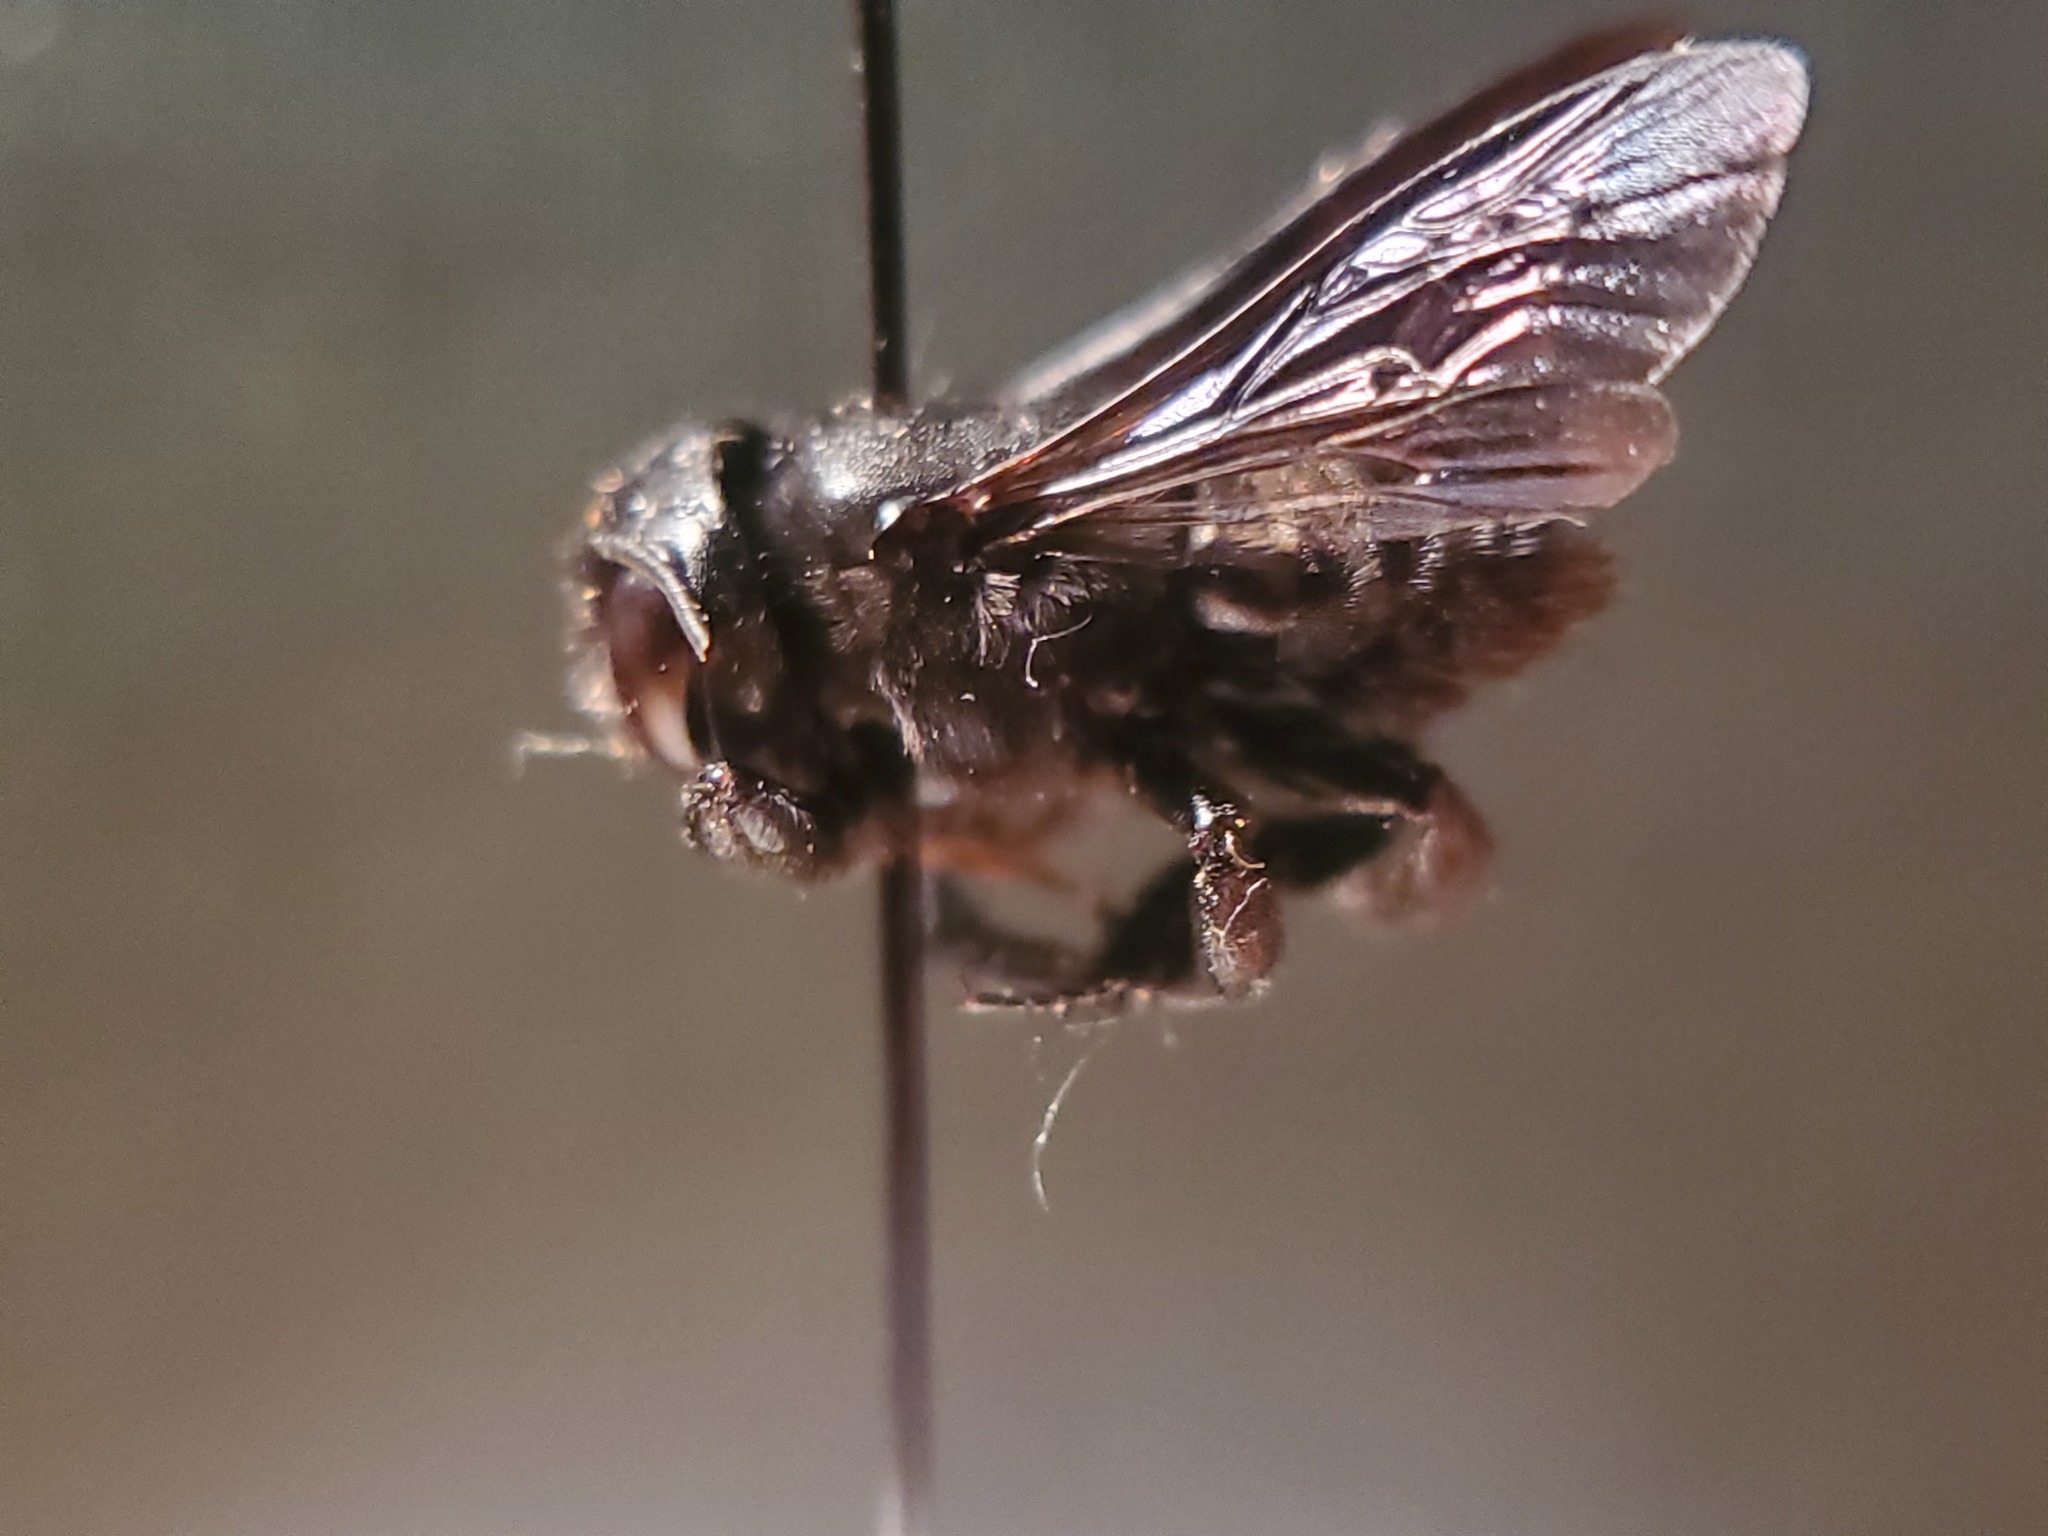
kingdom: Animalia
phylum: Arthropoda
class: Insecta
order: Hymenoptera
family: Megachilidae
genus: Megachile
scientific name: Megachile xylocopoides
